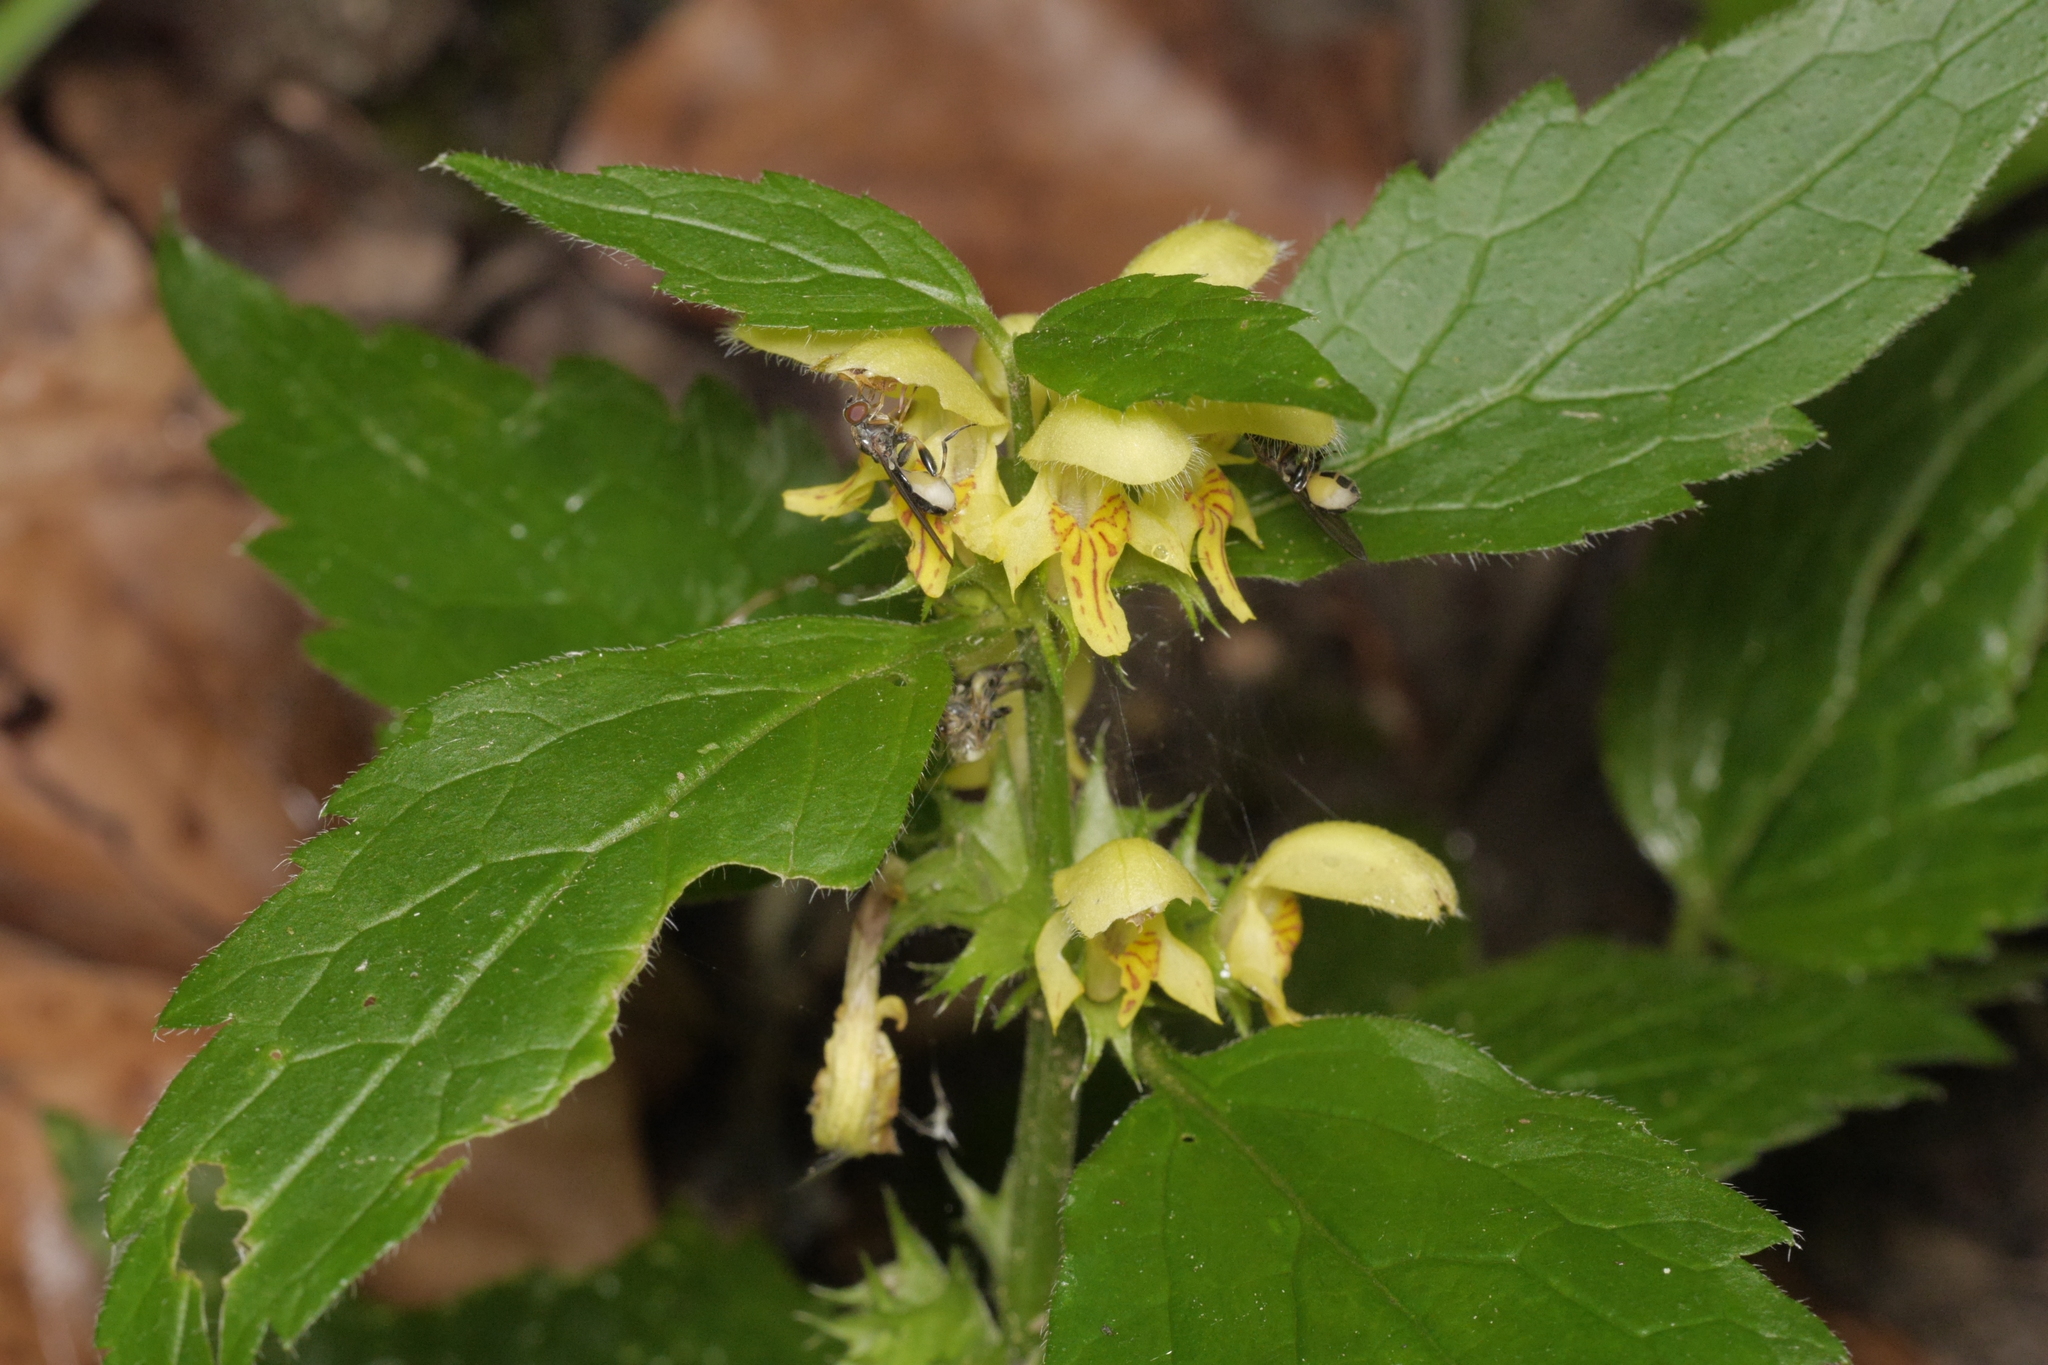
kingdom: Plantae
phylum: Tracheophyta
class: Magnoliopsida
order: Lamiales
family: Lamiaceae
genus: Lamium
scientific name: Lamium galeobdolon
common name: Yellow archangel
